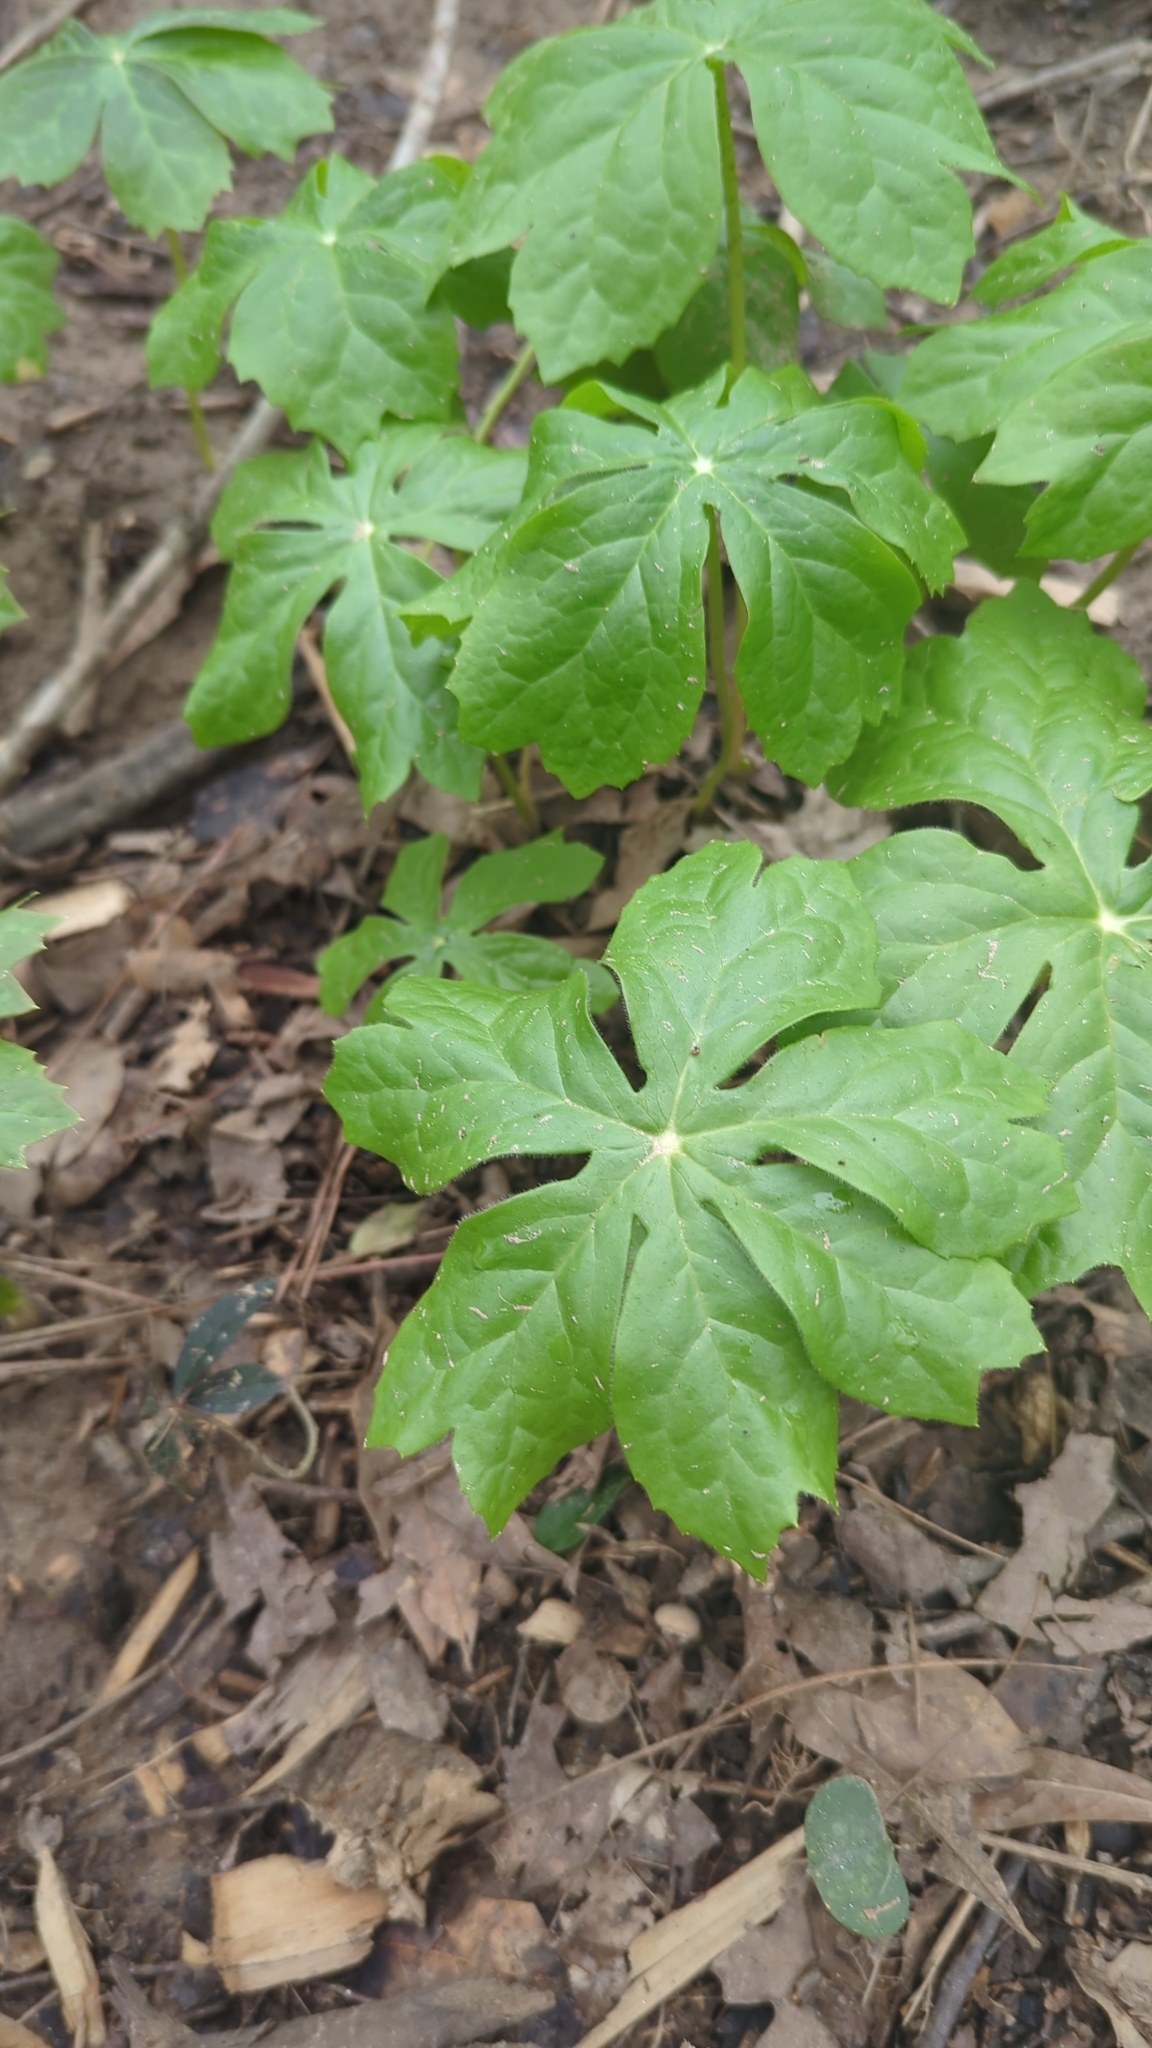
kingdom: Plantae
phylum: Tracheophyta
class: Magnoliopsida
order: Ranunculales
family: Berberidaceae
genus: Podophyllum
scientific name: Podophyllum peltatum
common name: Wild mandrake
